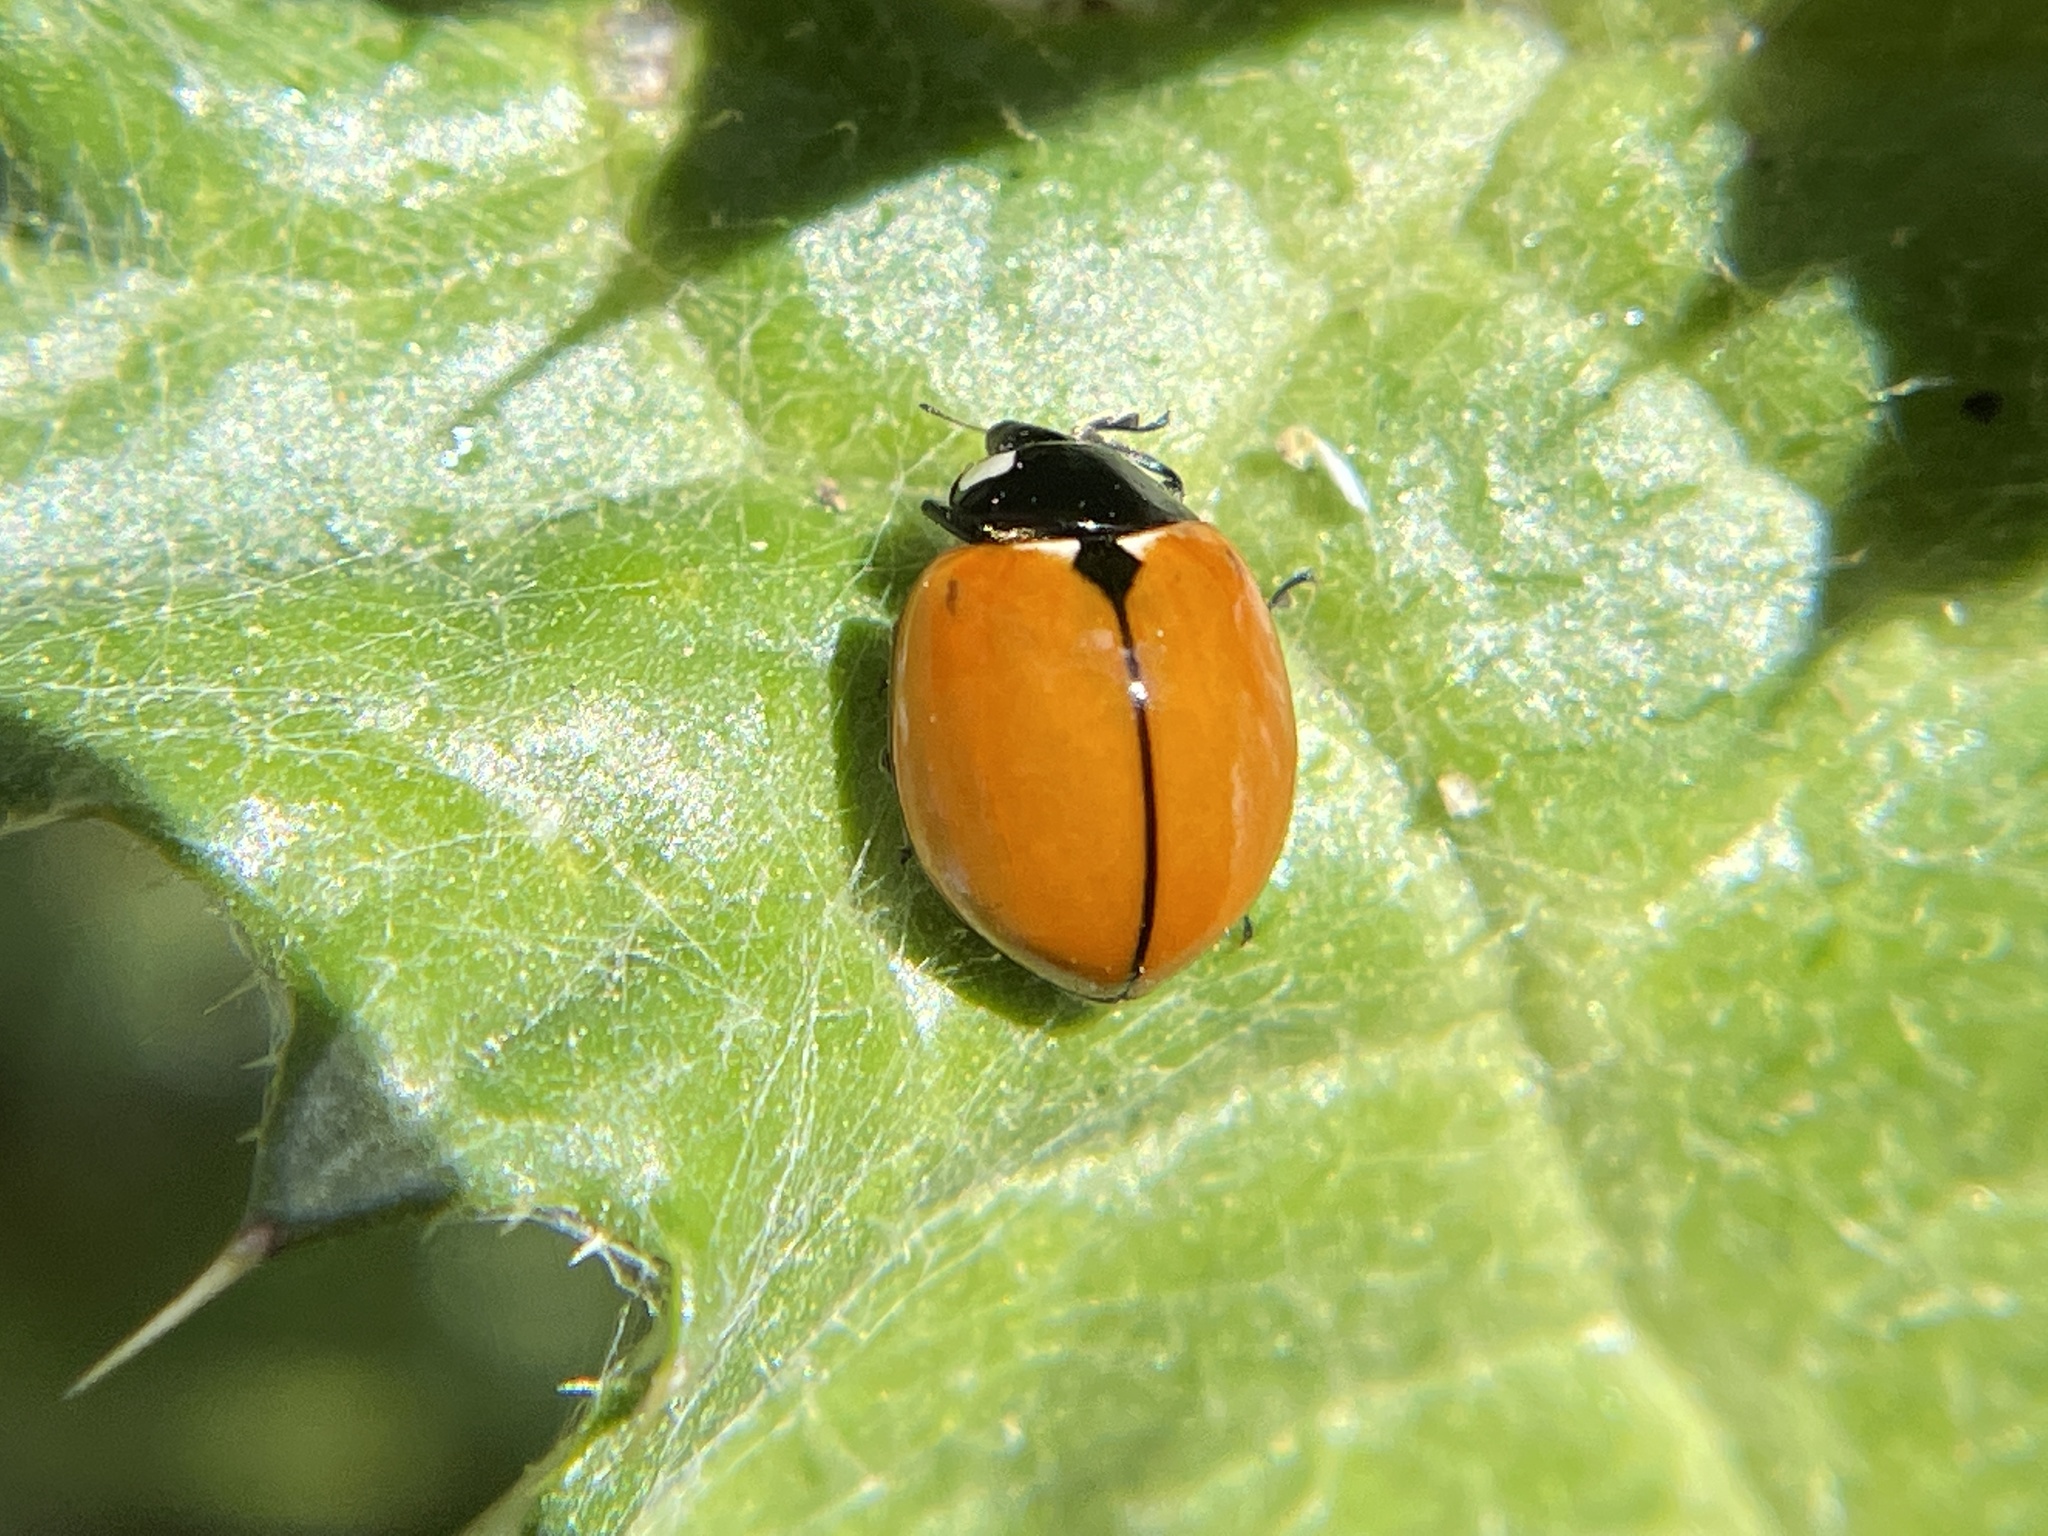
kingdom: Animalia
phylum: Arthropoda
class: Insecta
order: Coleoptera
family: Coccinellidae
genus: Coccinella
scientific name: Coccinella californica
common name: Lady beetle
